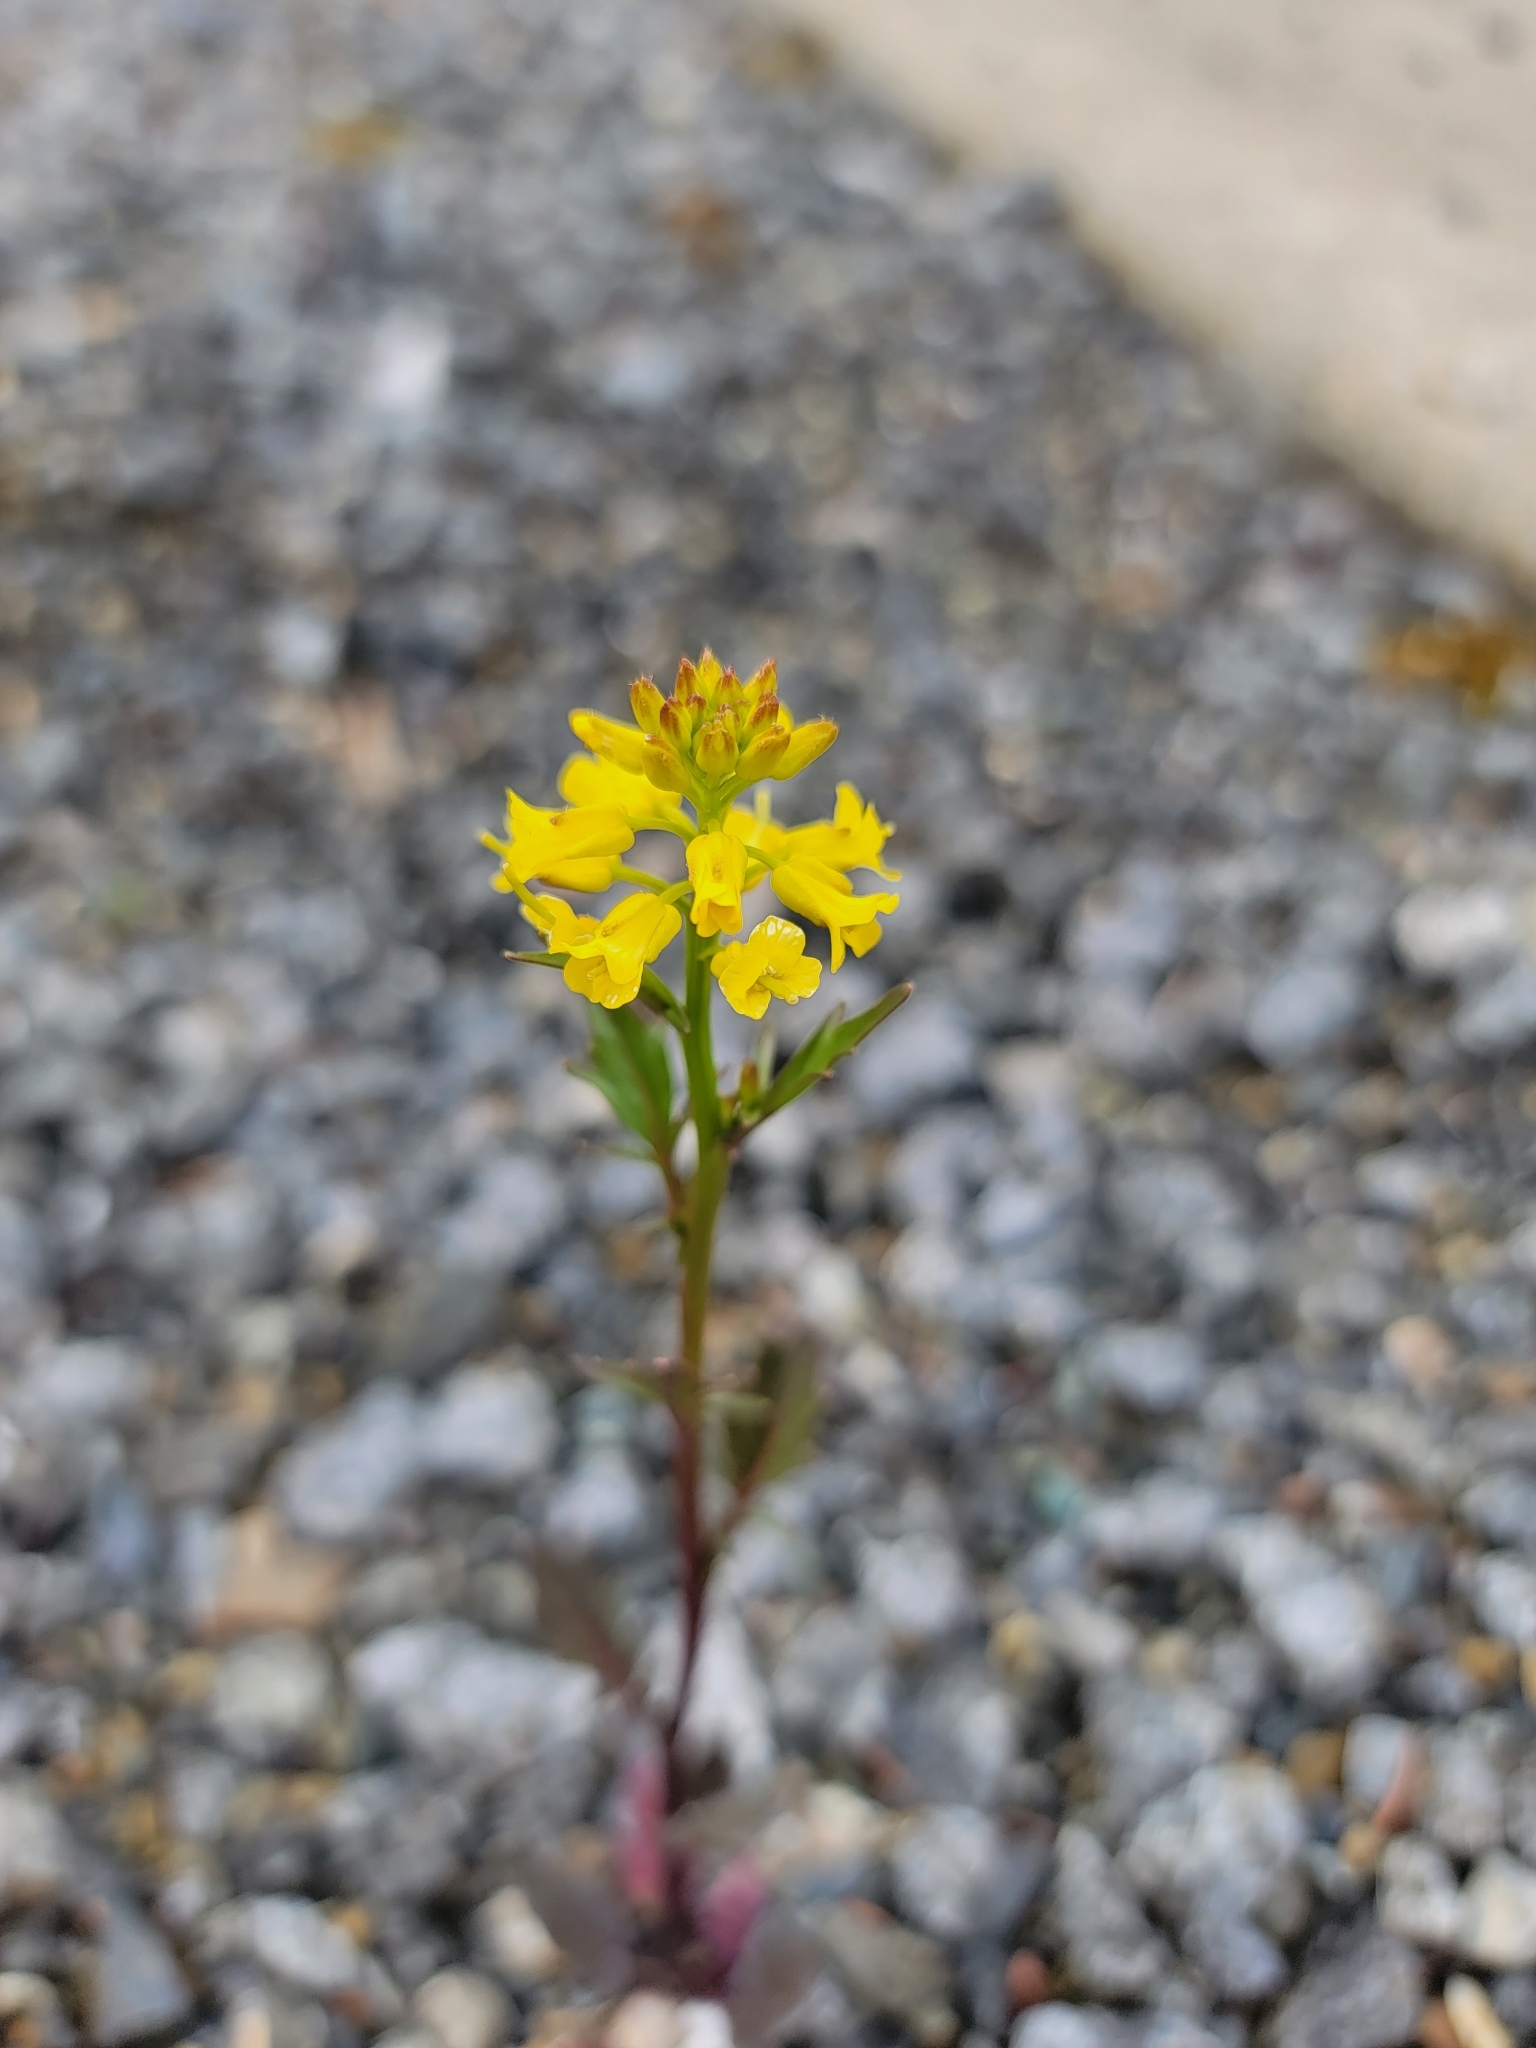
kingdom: Plantae
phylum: Tracheophyta
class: Magnoliopsida
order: Brassicales
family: Brassicaceae
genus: Barbarea
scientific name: Barbarea orthoceras
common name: American wintercress
